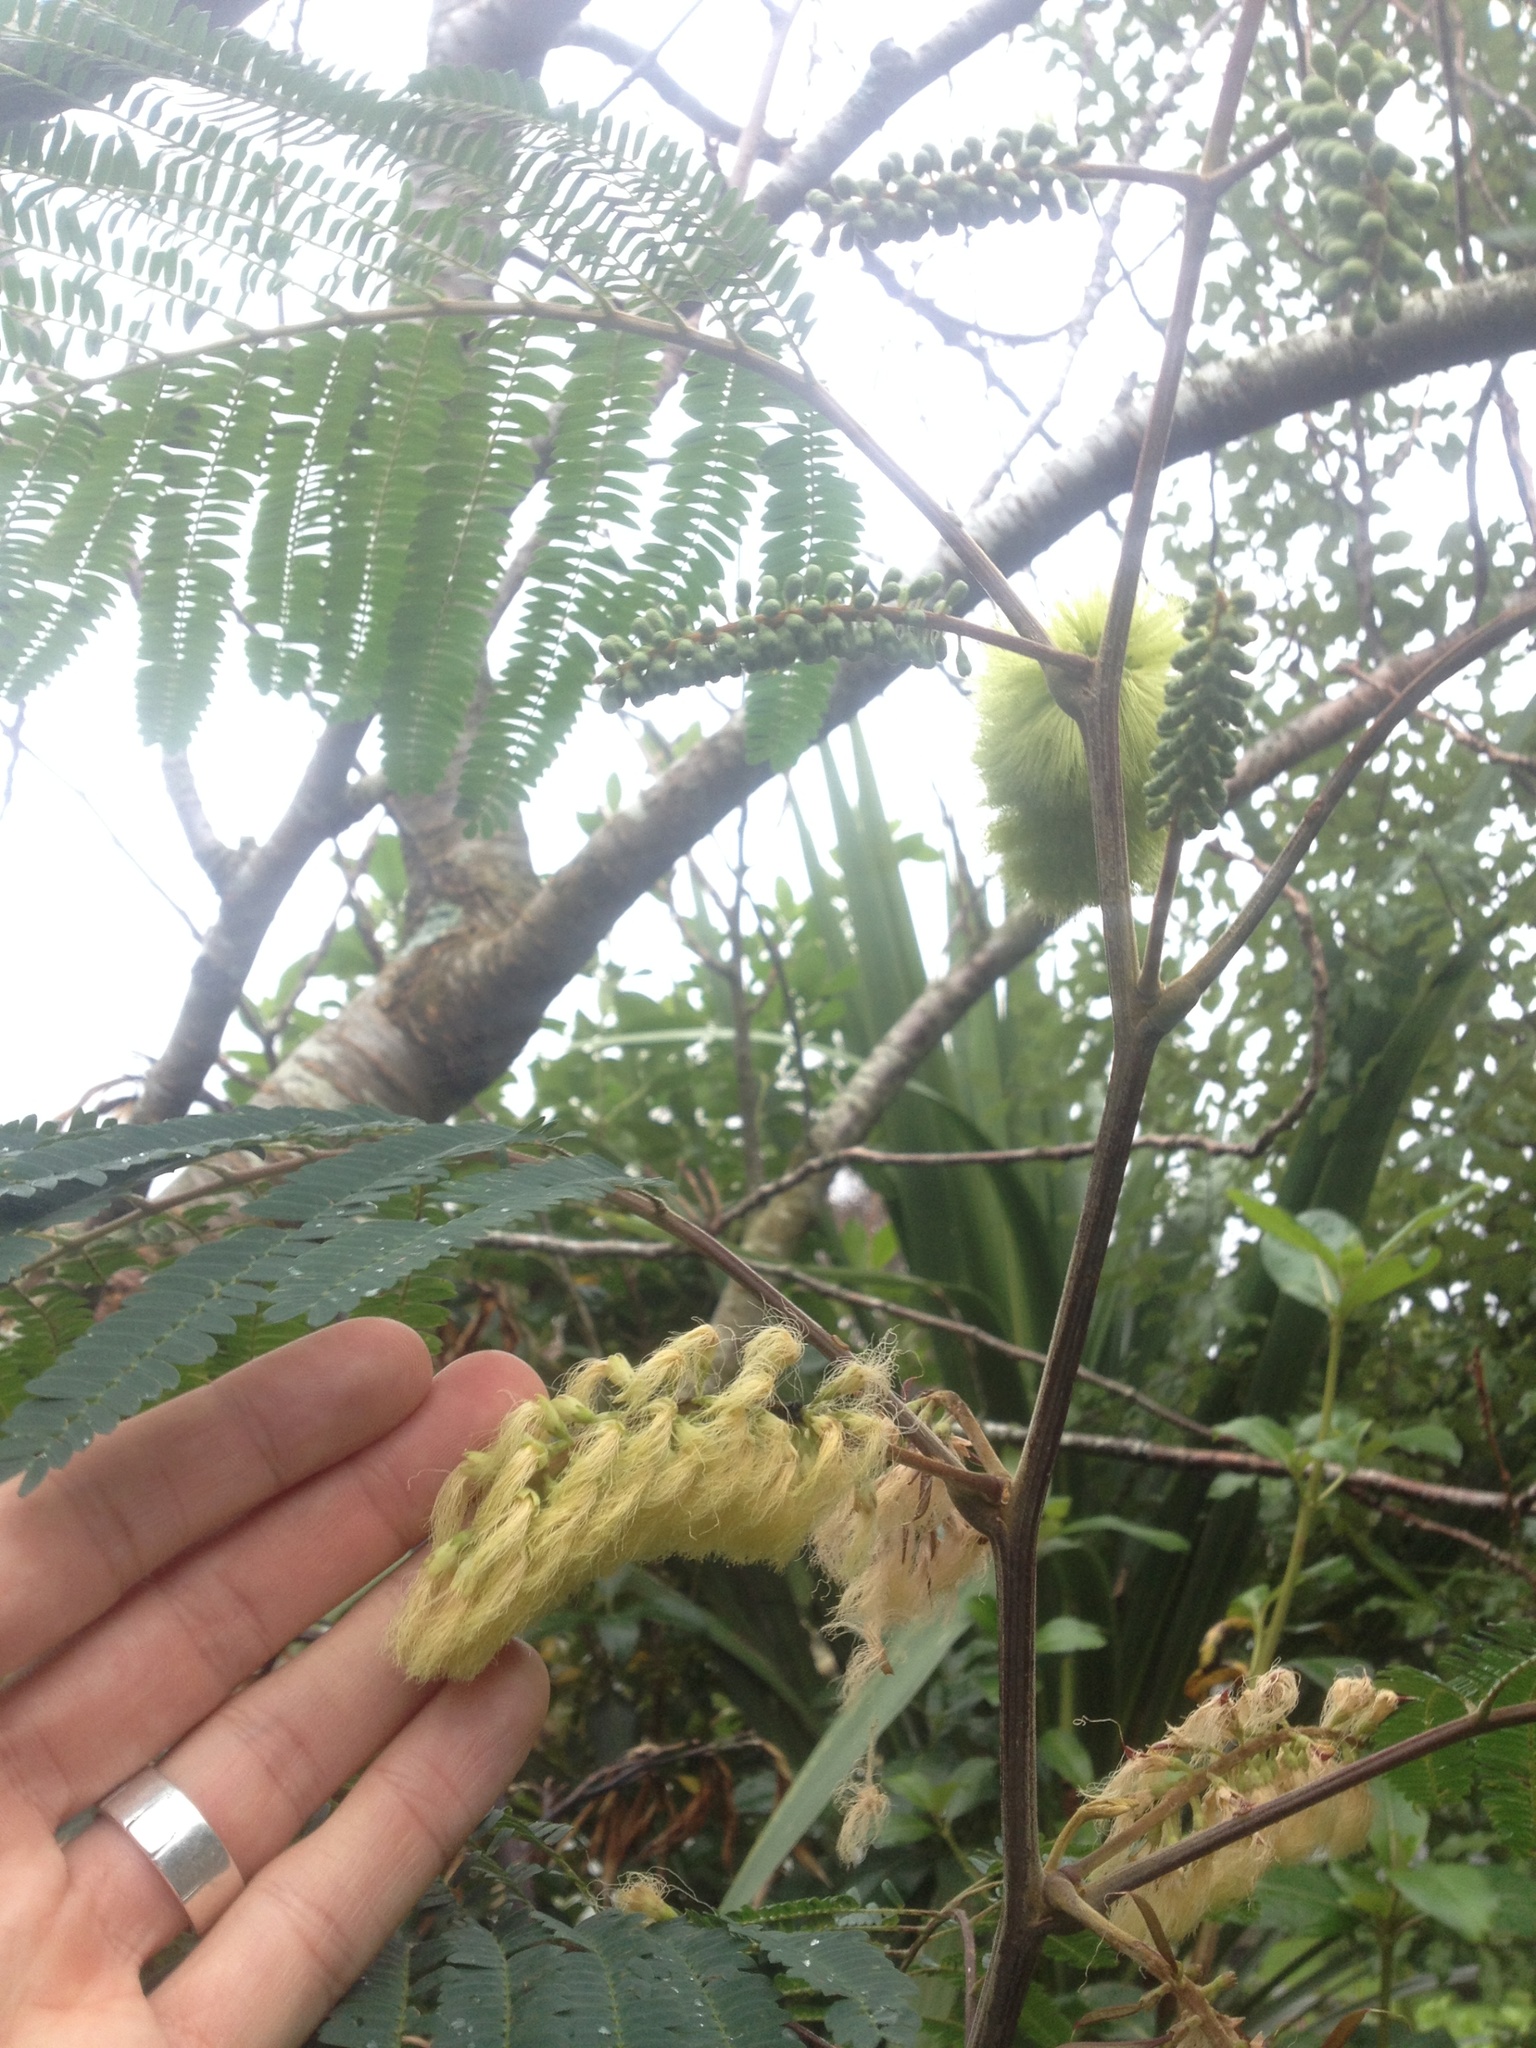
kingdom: Plantae
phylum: Tracheophyta
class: Magnoliopsida
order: Fabales
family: Fabaceae
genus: Paraserianthes
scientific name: Paraserianthes lophantha
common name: Plume albizia
